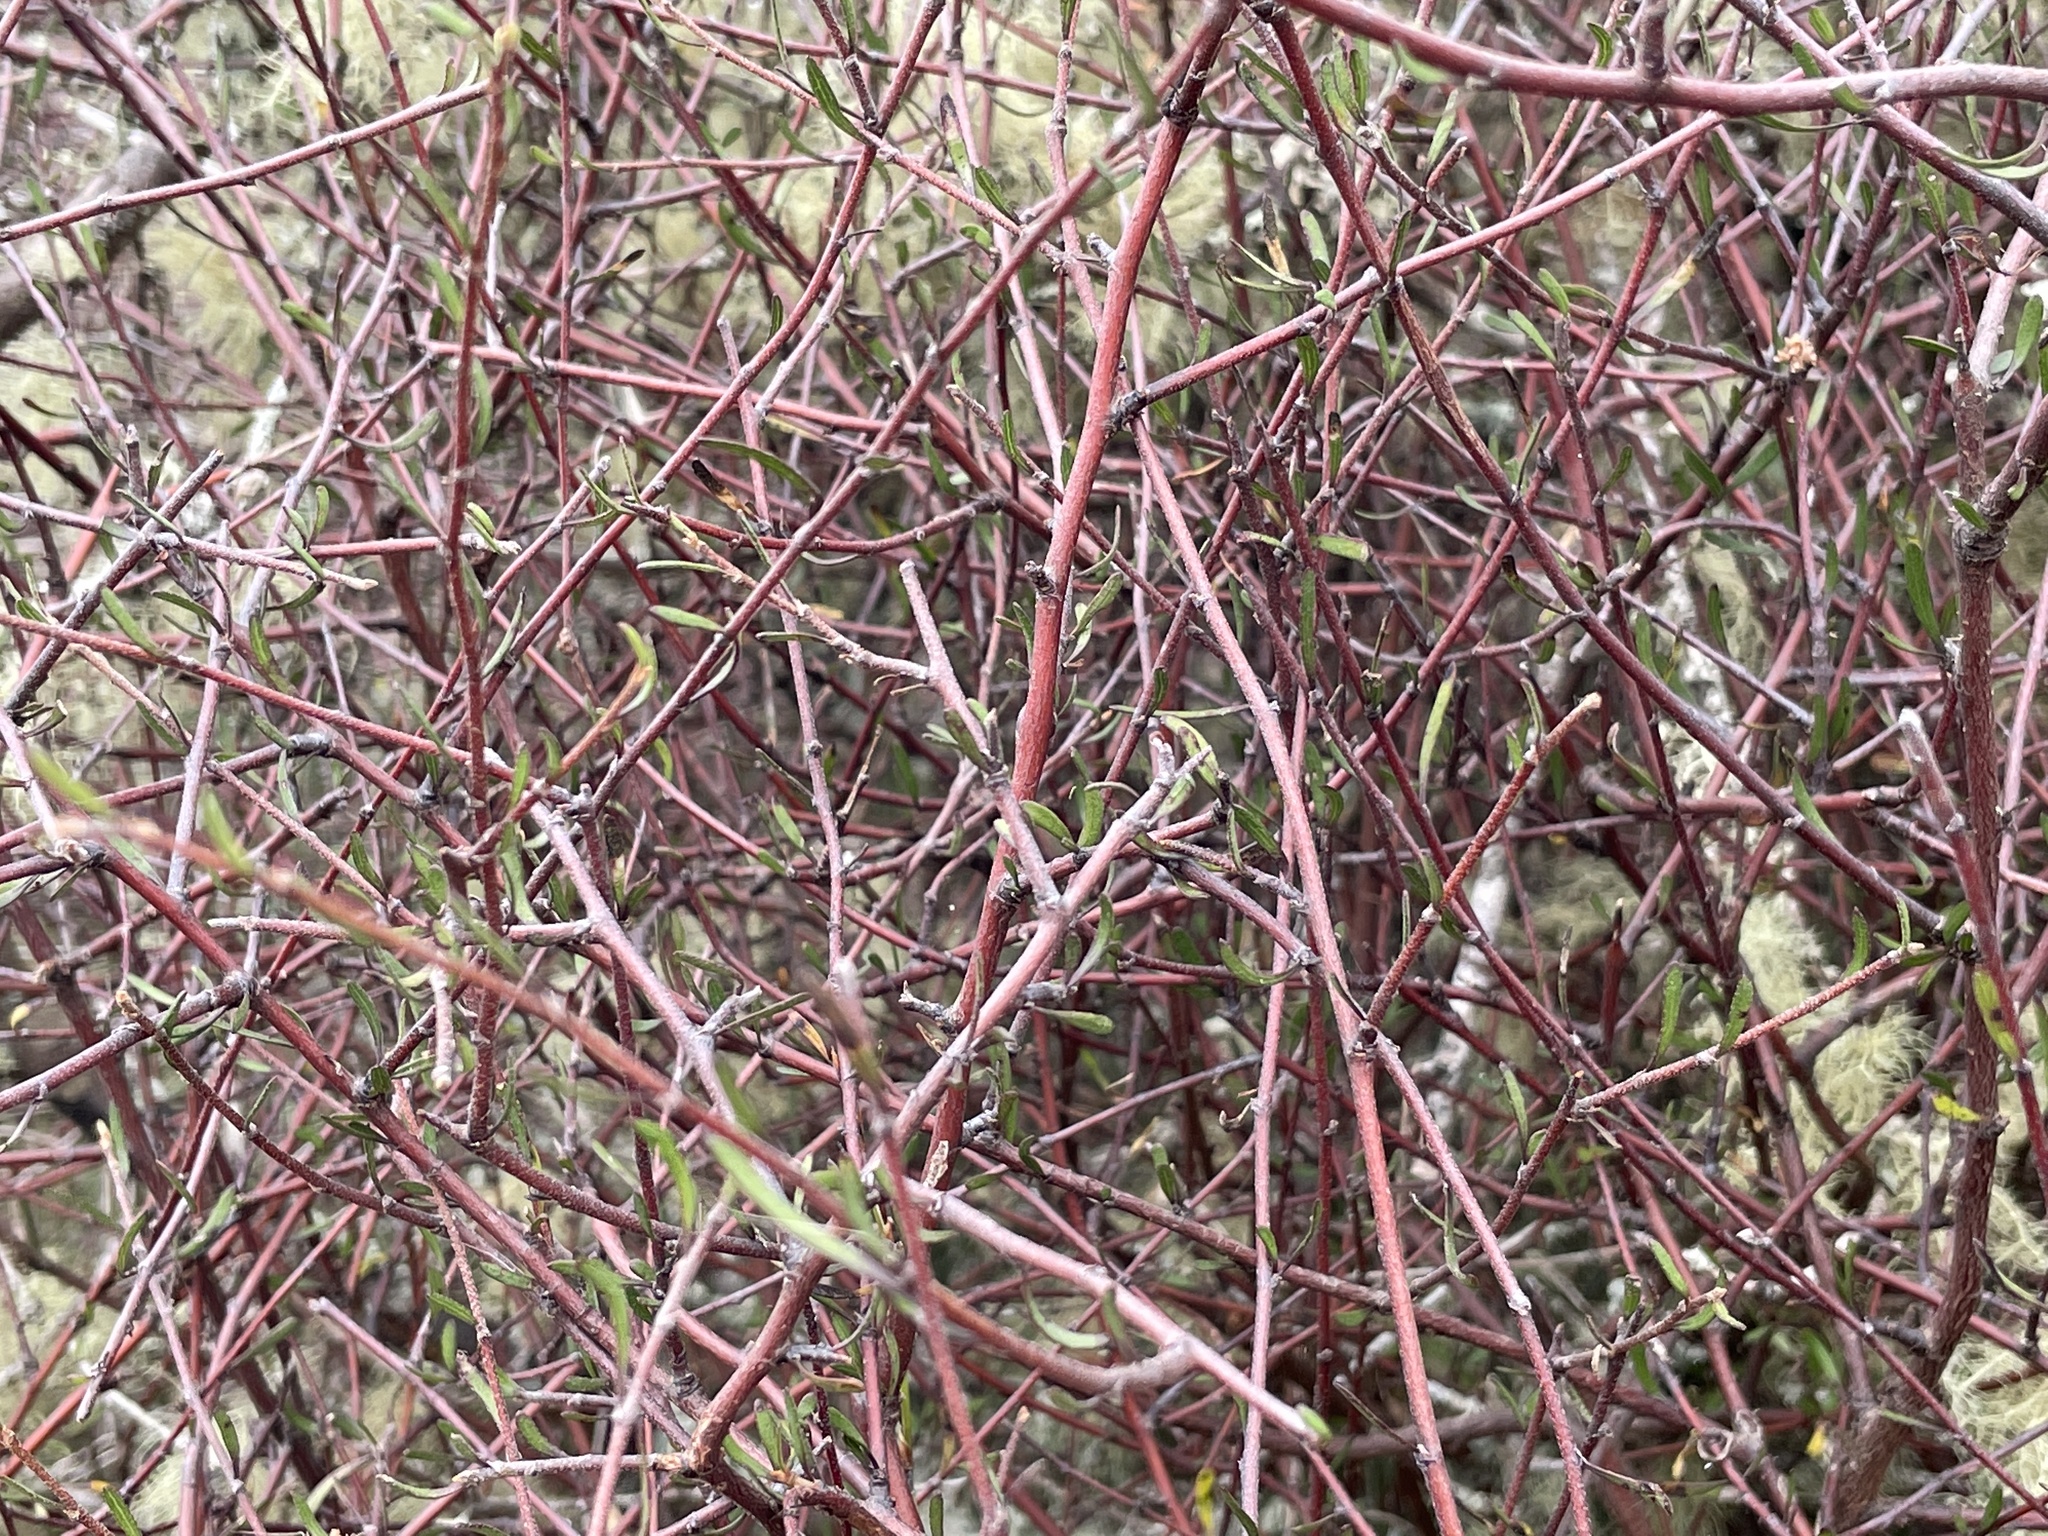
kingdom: Plantae
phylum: Tracheophyta
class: Magnoliopsida
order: Malvales
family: Malvaceae
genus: Plagianthus
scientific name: Plagianthus divaricatus
